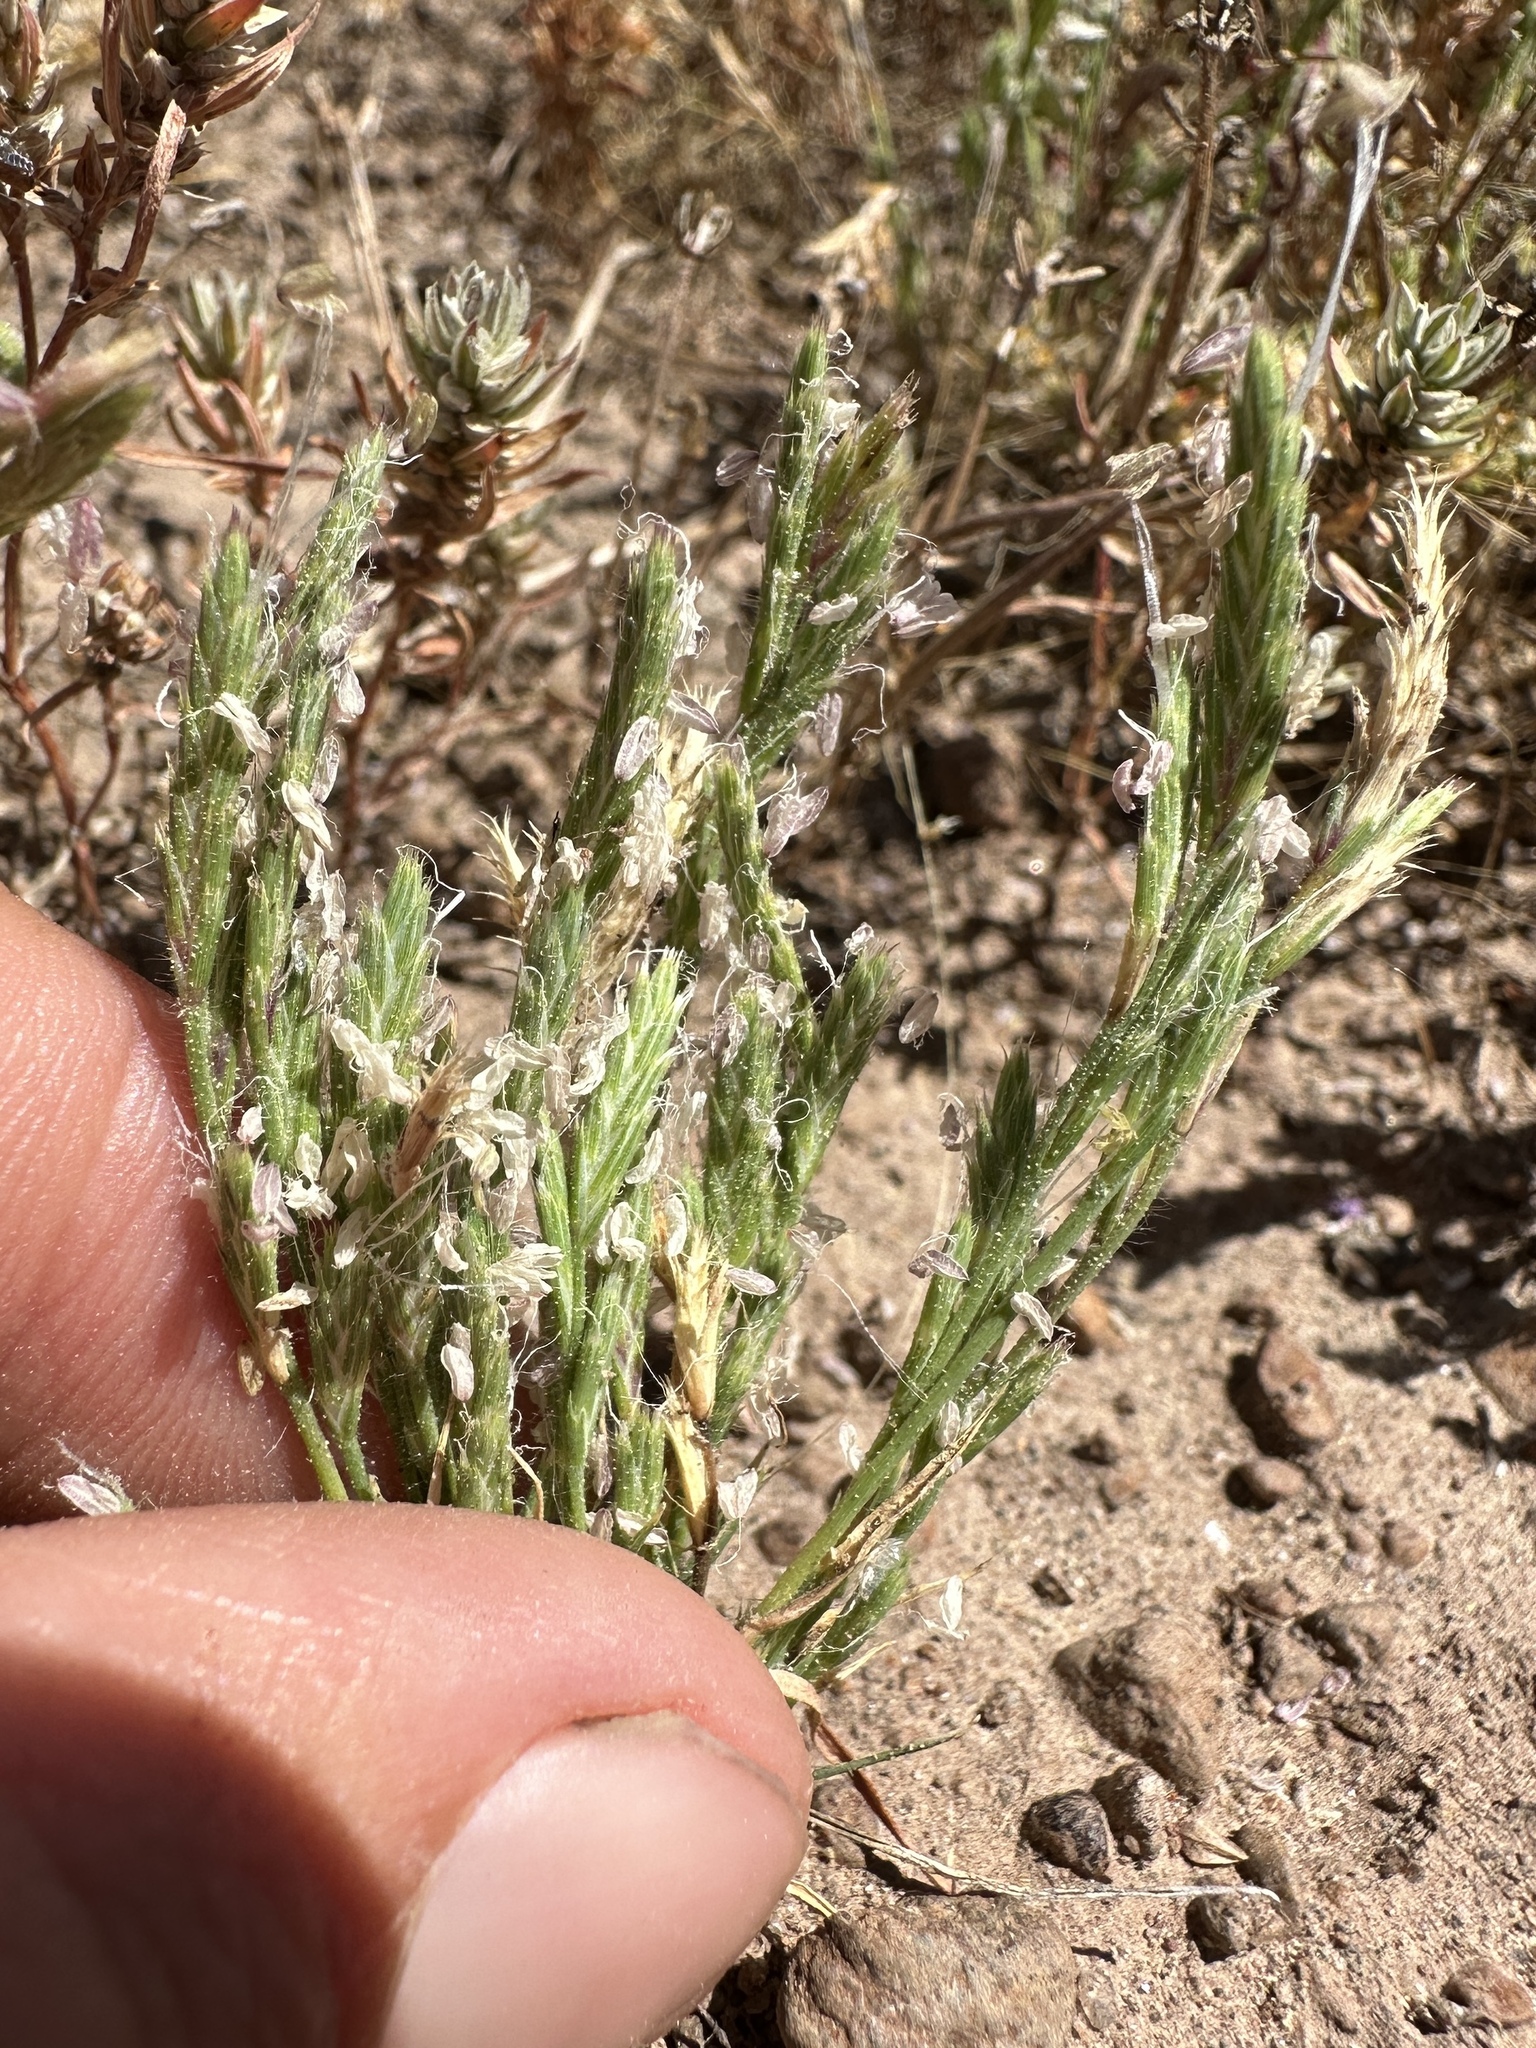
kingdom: Plantae
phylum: Tracheophyta
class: Liliopsida
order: Poales
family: Poaceae
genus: Orcuttia
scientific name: Orcuttia tenuis
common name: Slender orcutt grass
